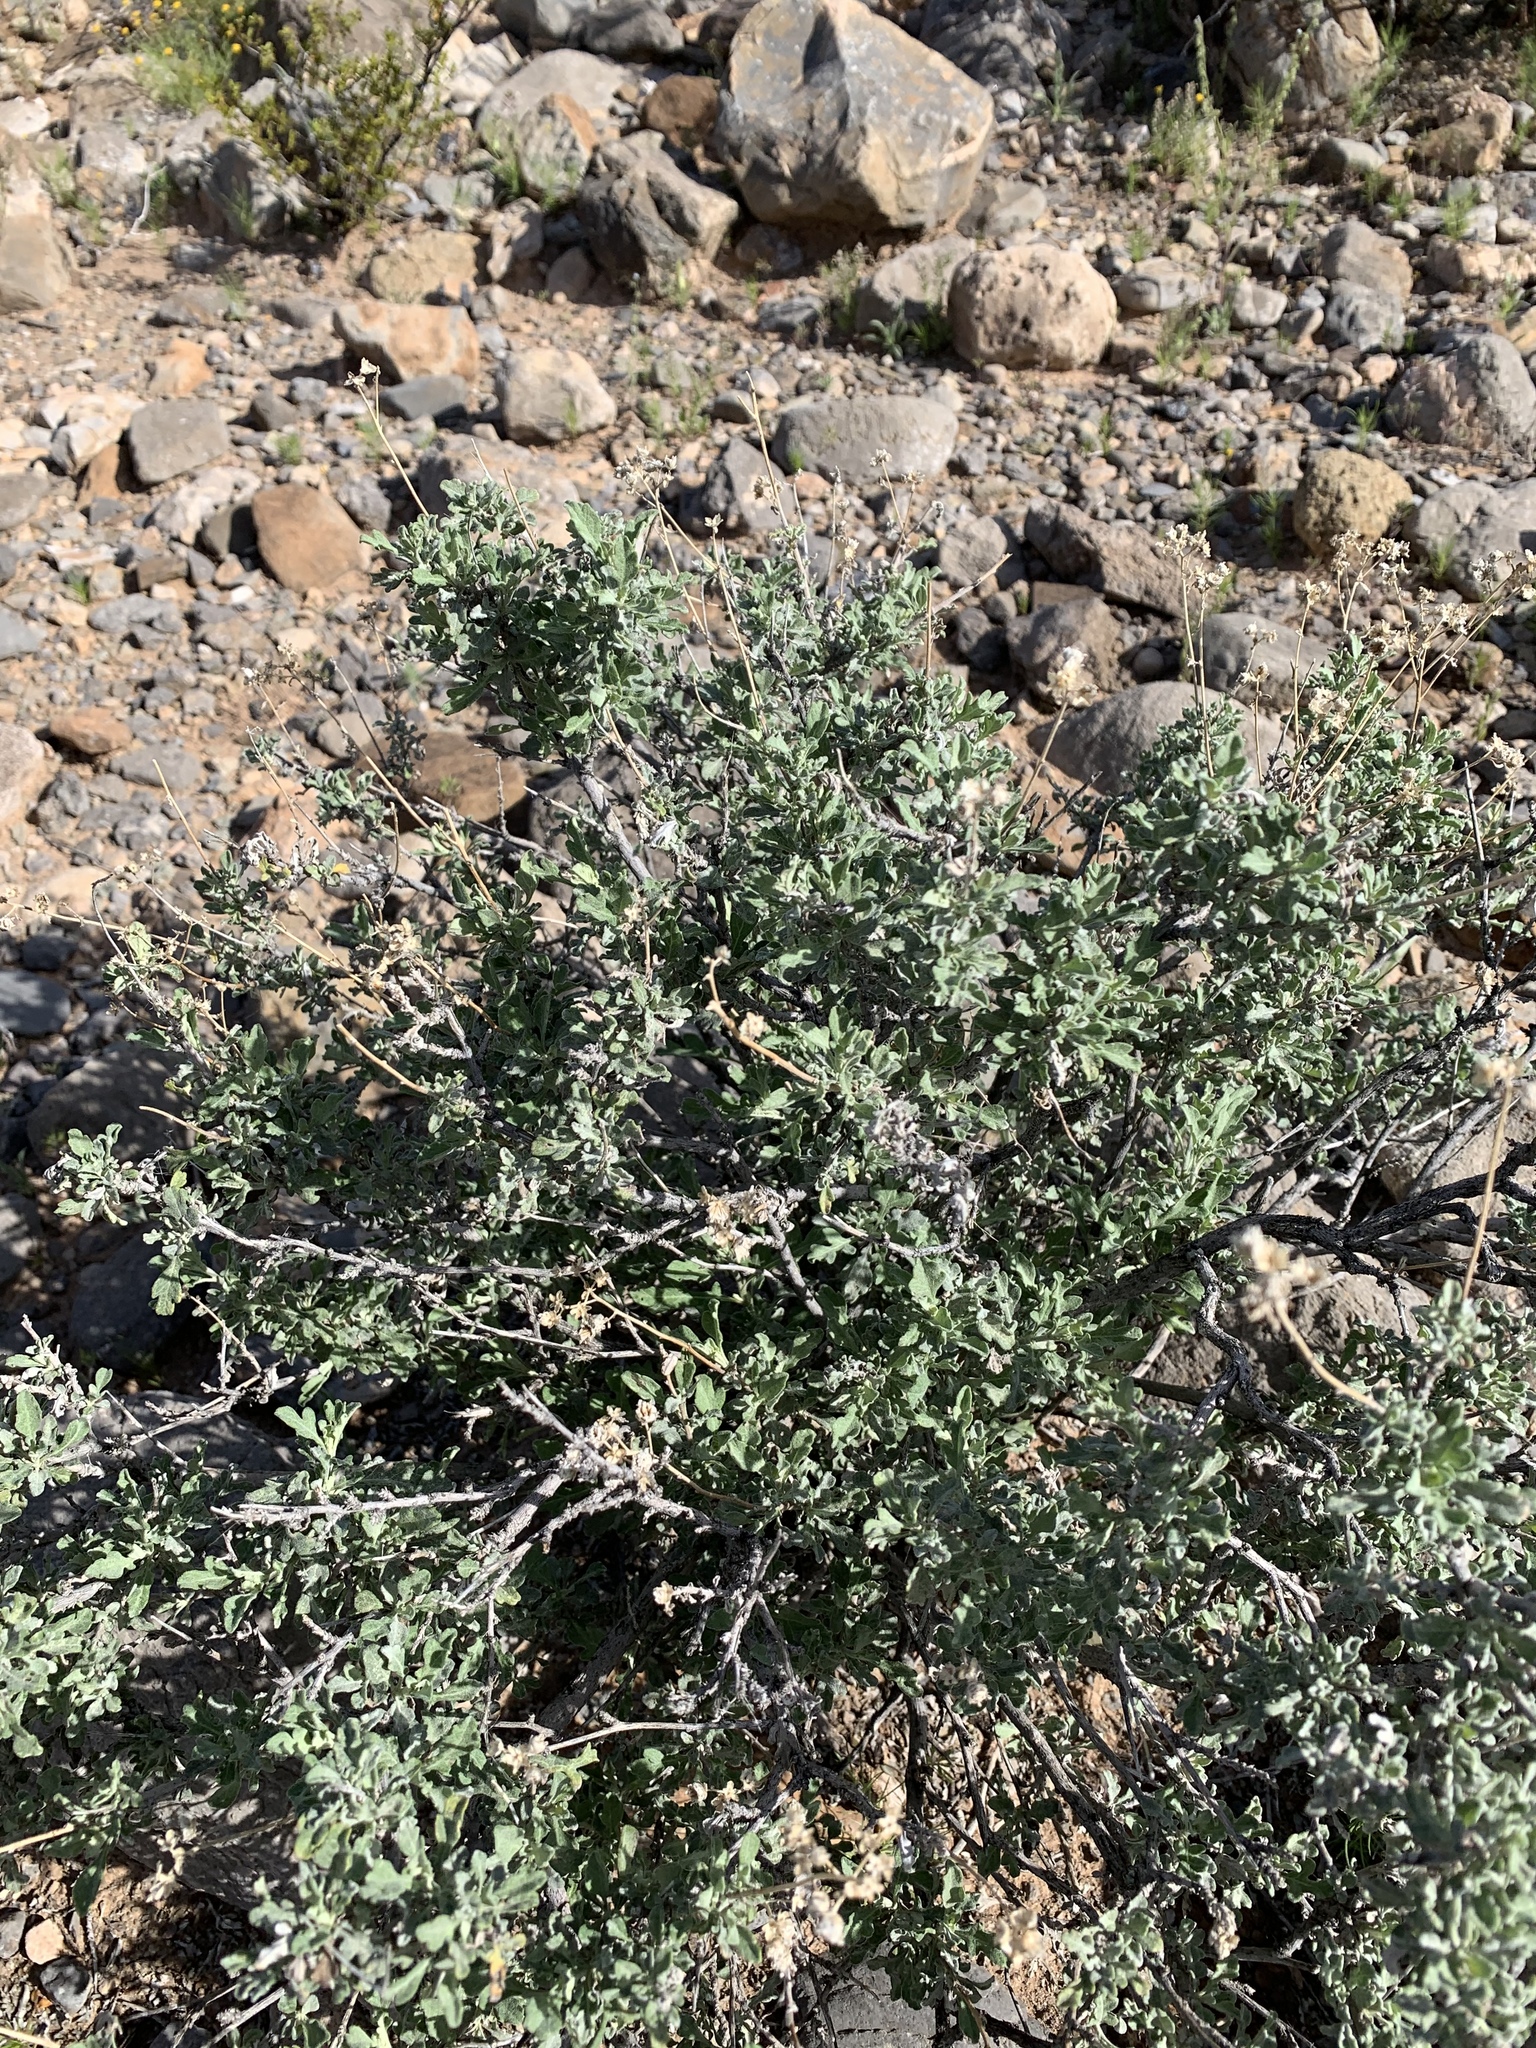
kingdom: Plantae
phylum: Tracheophyta
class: Magnoliopsida
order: Asterales
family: Asteraceae
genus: Parthenium
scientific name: Parthenium incanum
